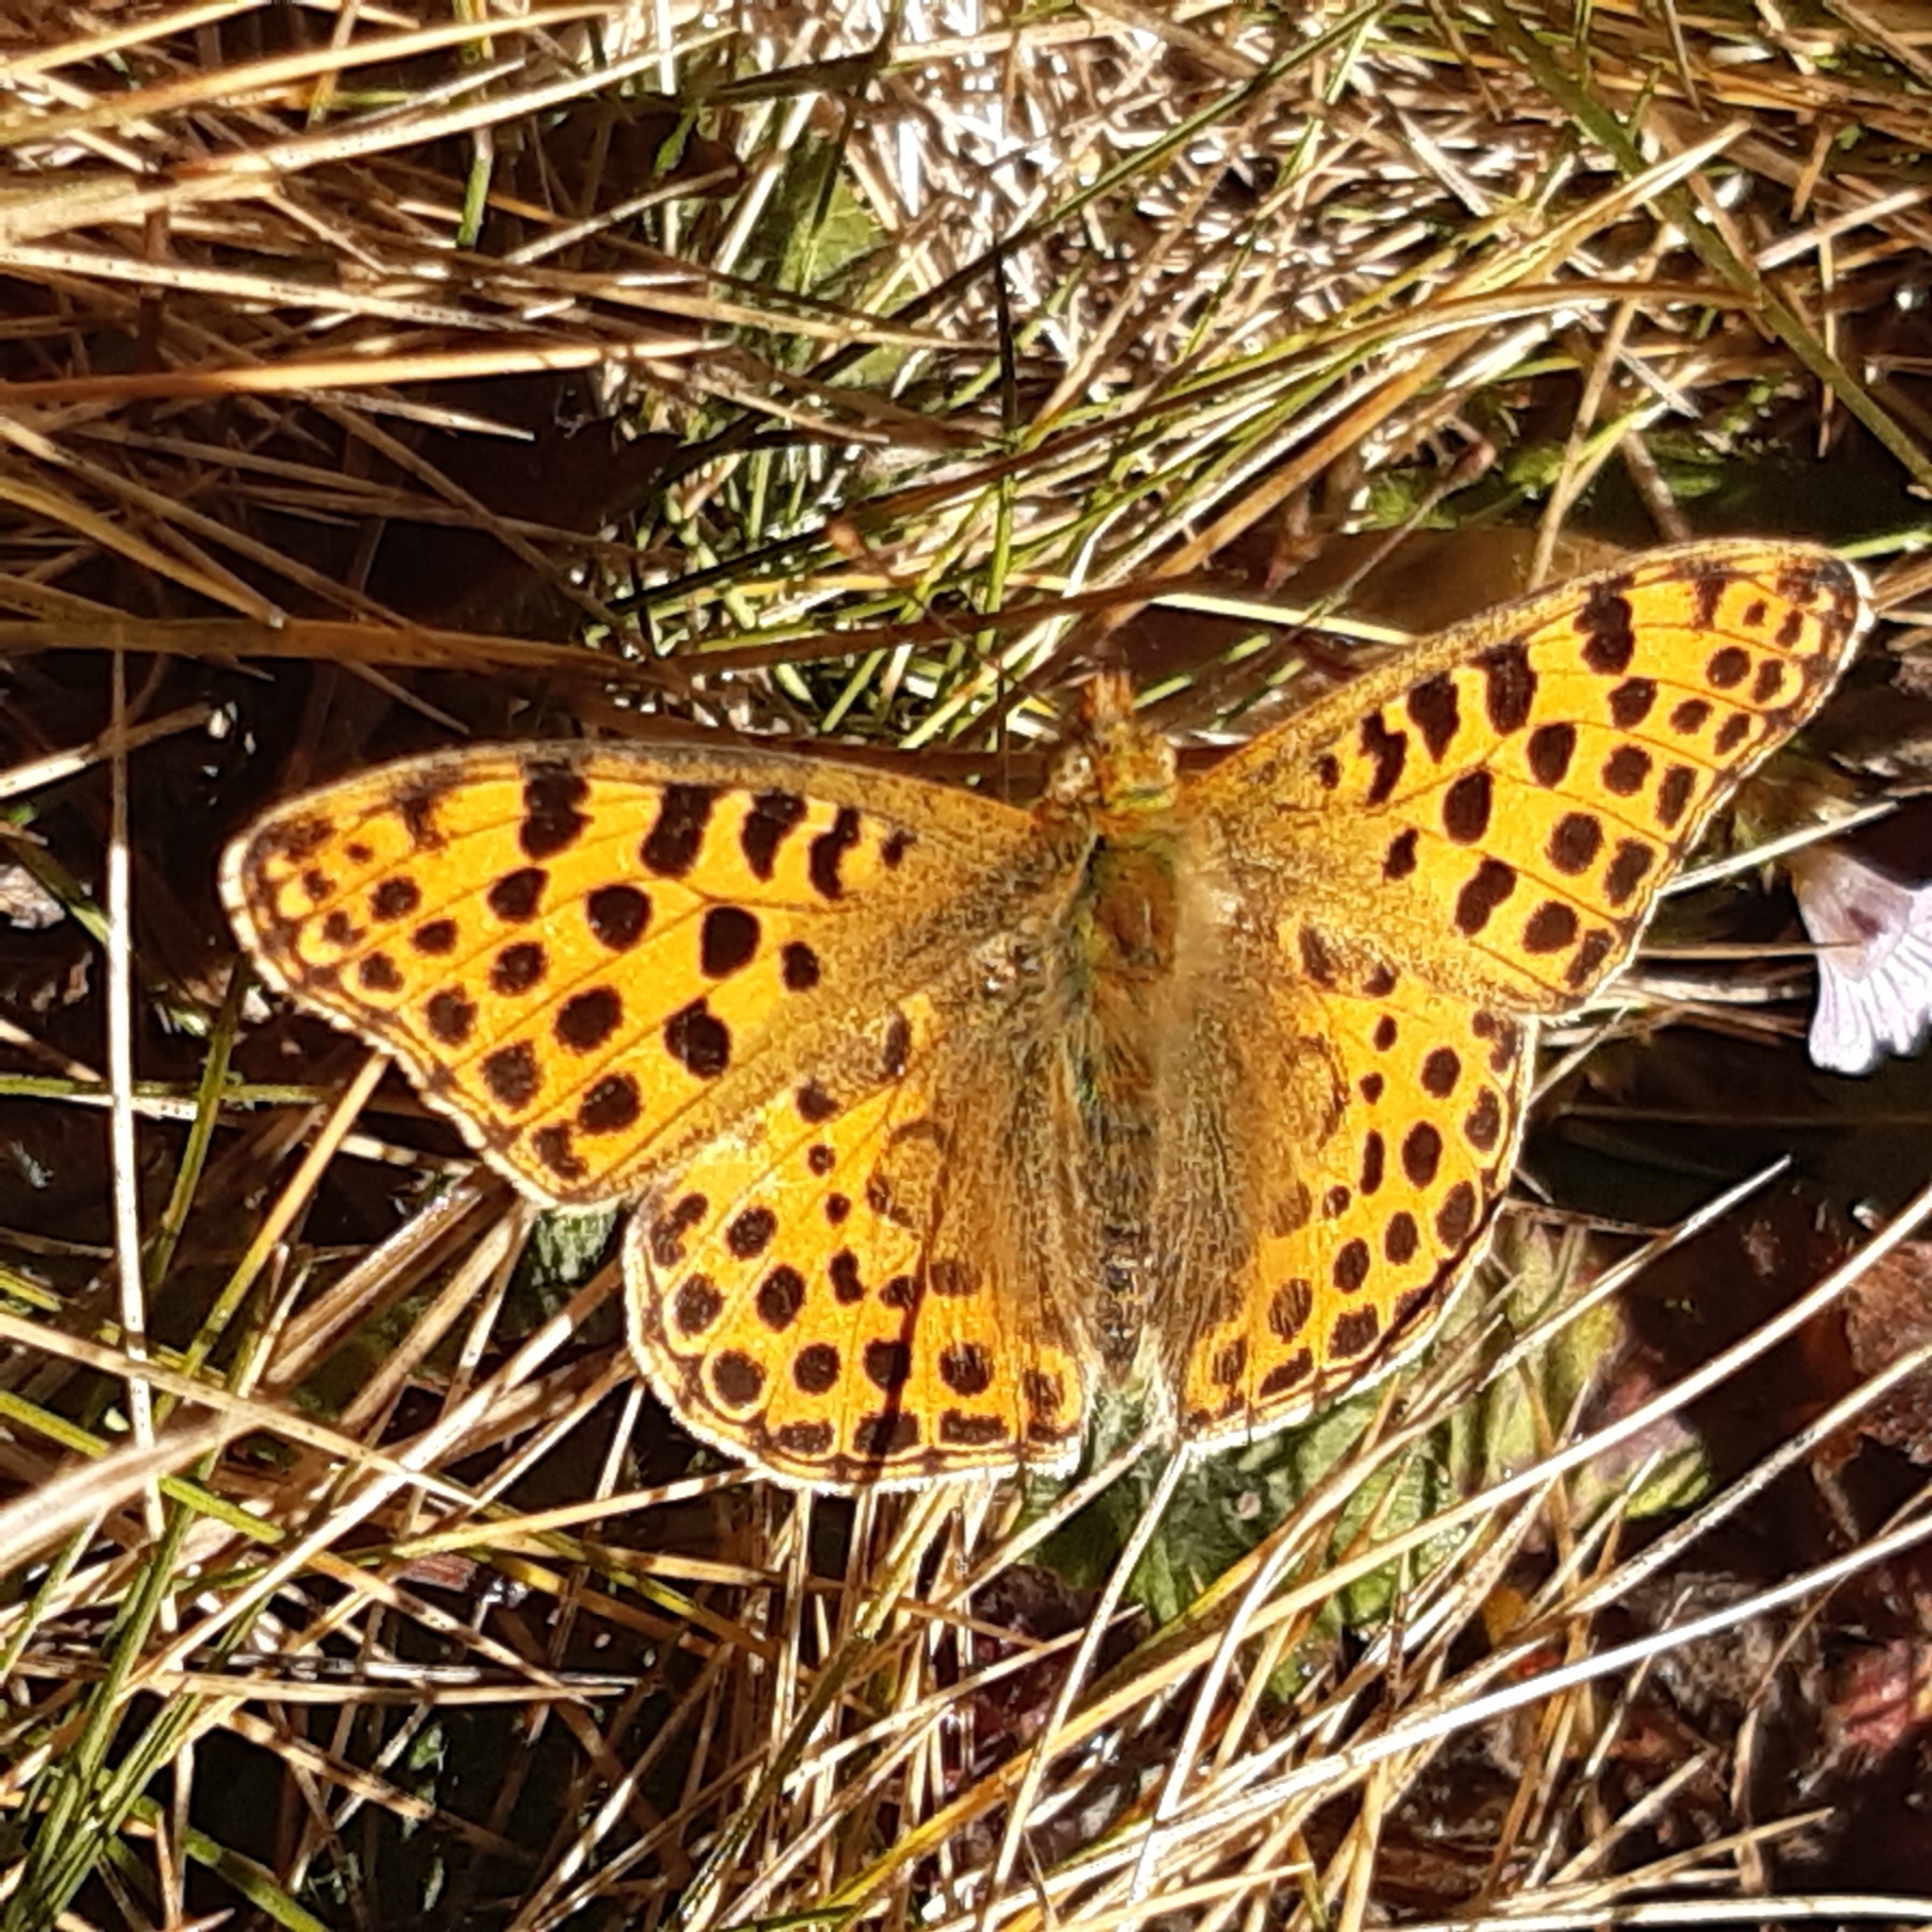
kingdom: Animalia
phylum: Arthropoda
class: Insecta
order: Lepidoptera
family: Nymphalidae
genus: Issoria
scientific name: Issoria lathonia
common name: Queen of spain fritillary
